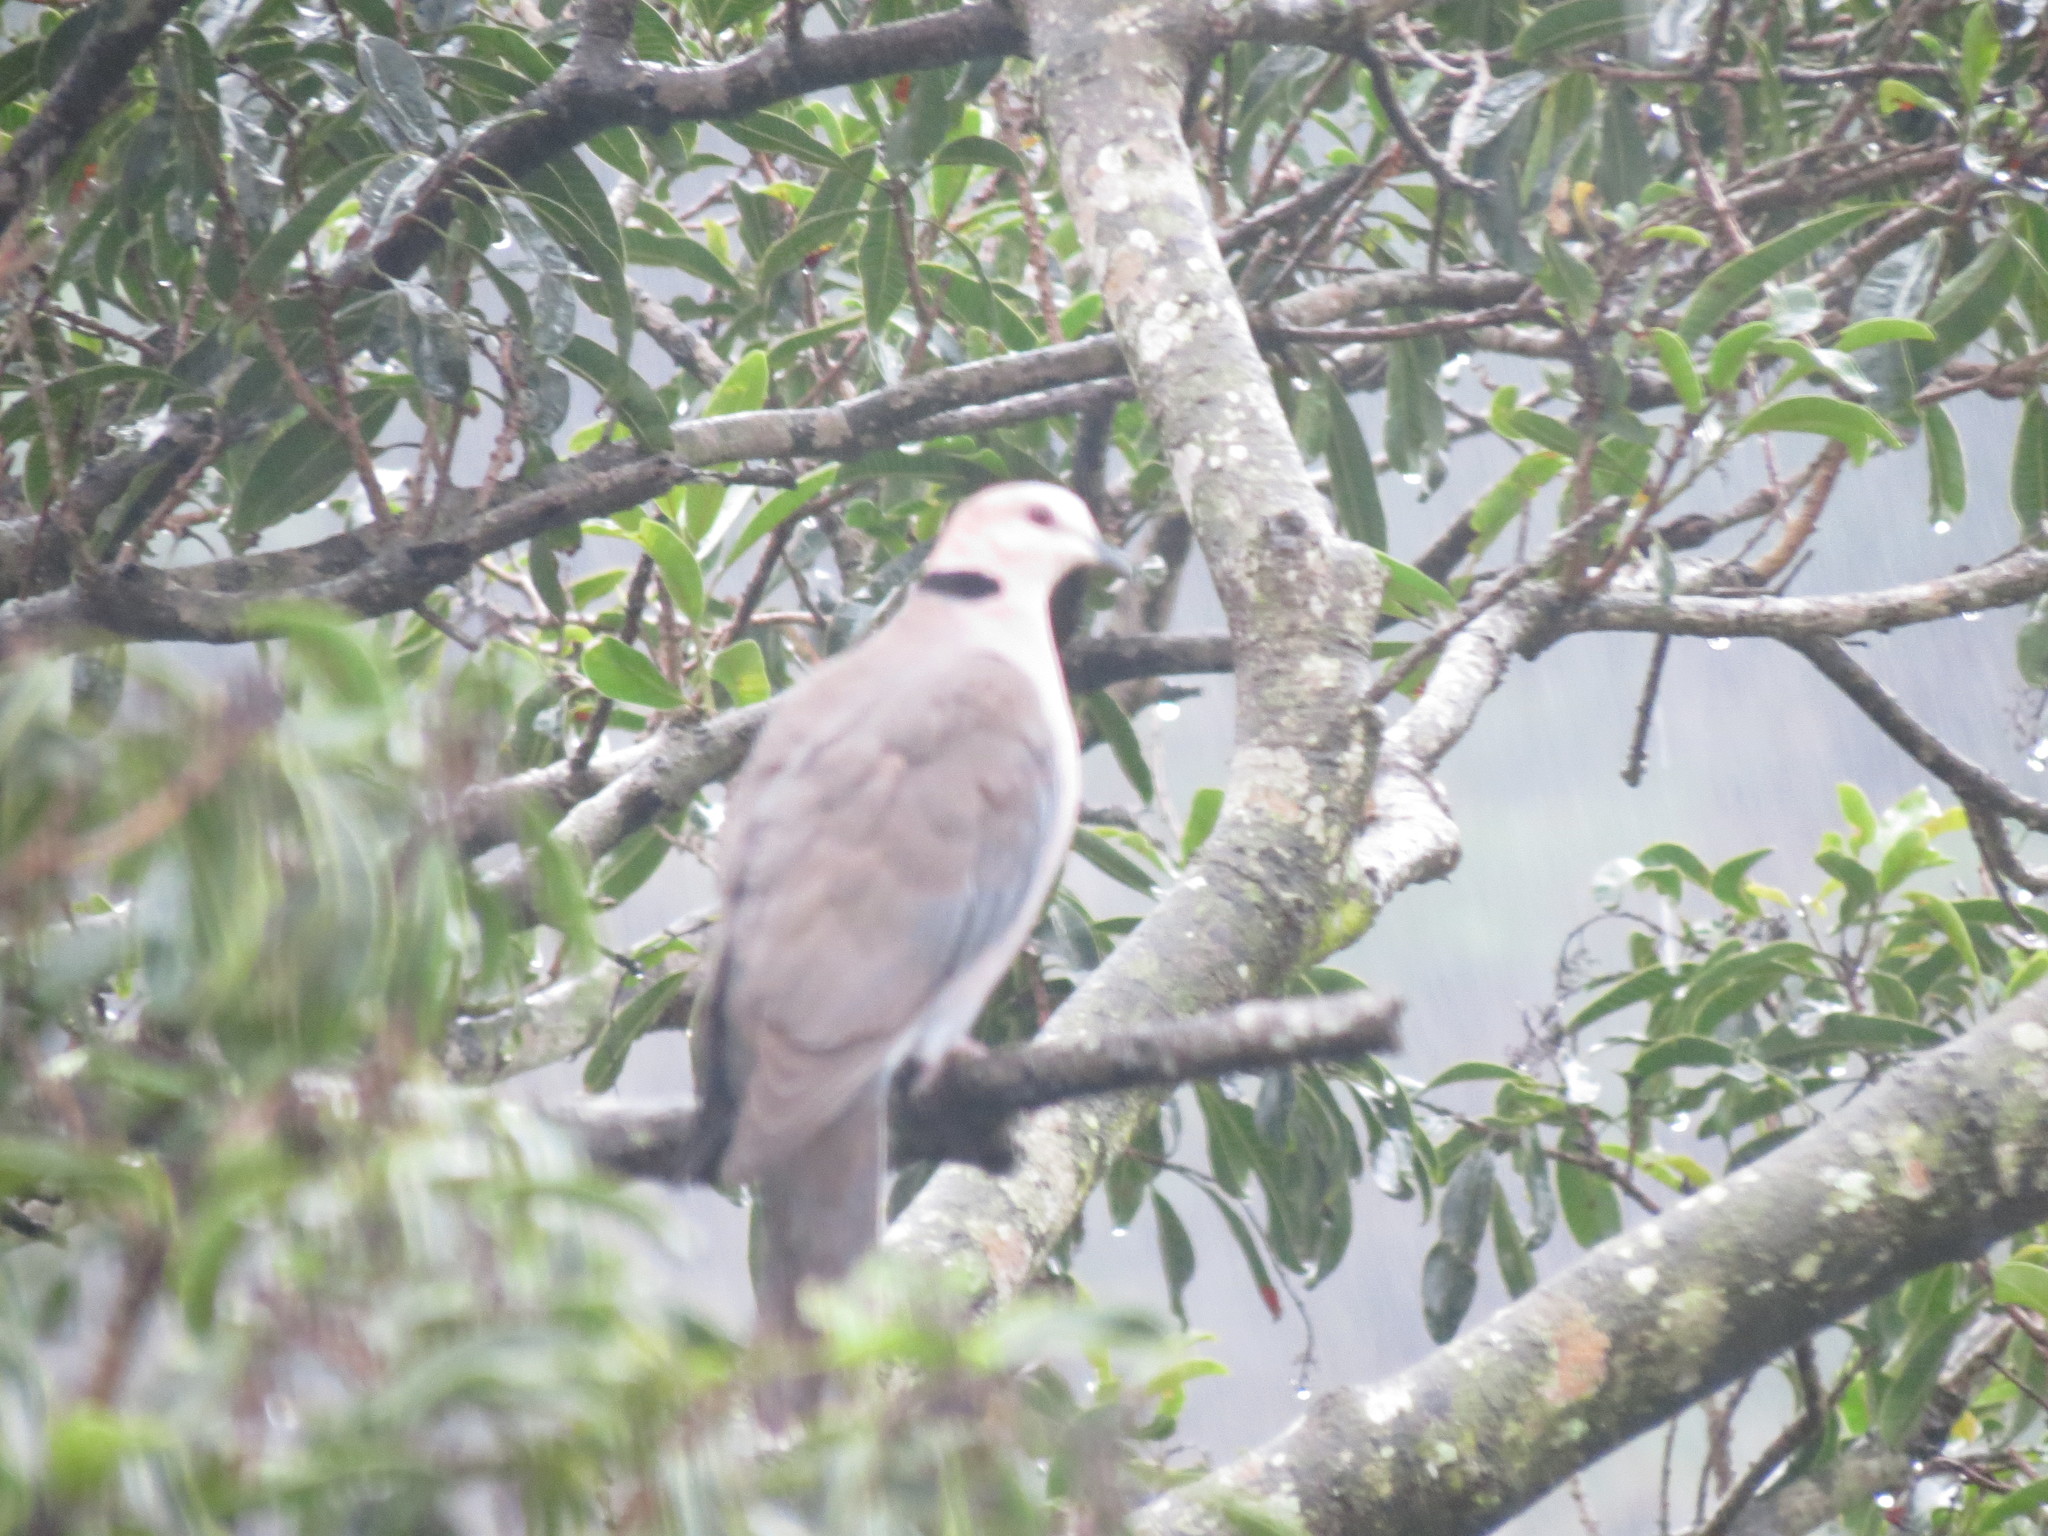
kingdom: Animalia
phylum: Chordata
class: Aves
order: Columbiformes
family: Columbidae
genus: Streptopelia
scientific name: Streptopelia semitorquata
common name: Red-eyed dove
